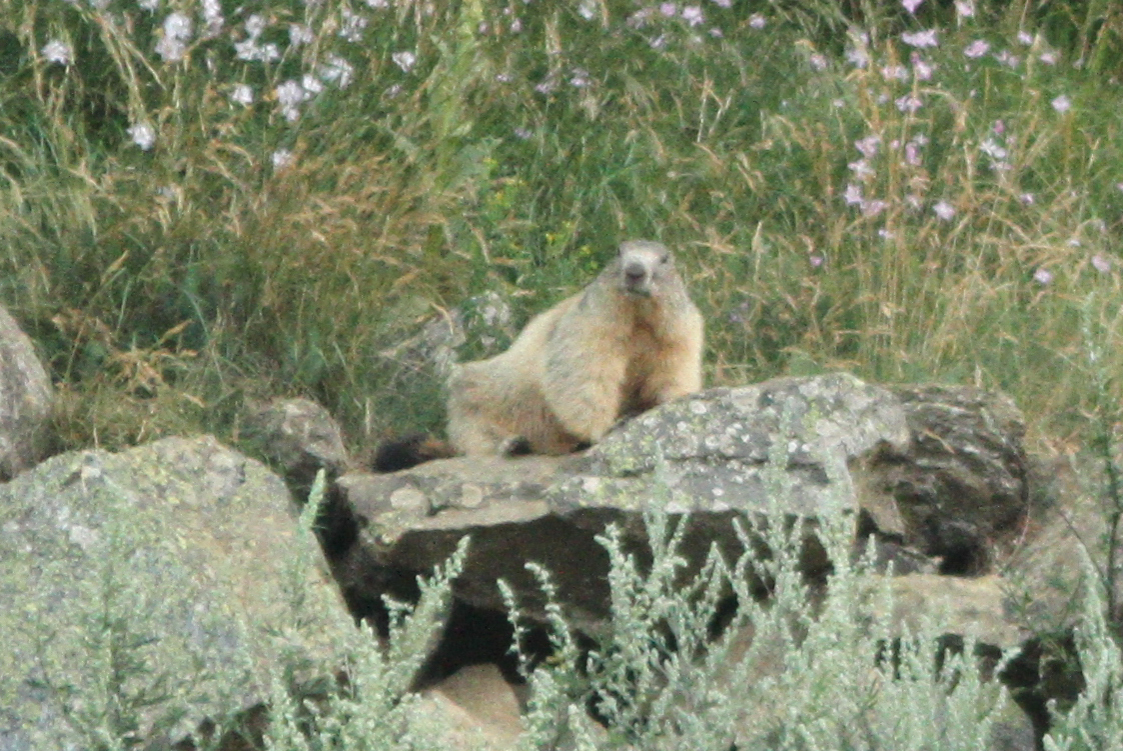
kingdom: Animalia
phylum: Chordata
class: Mammalia
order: Rodentia
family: Sciuridae
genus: Marmota
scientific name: Marmota marmota
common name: Alpine marmot
